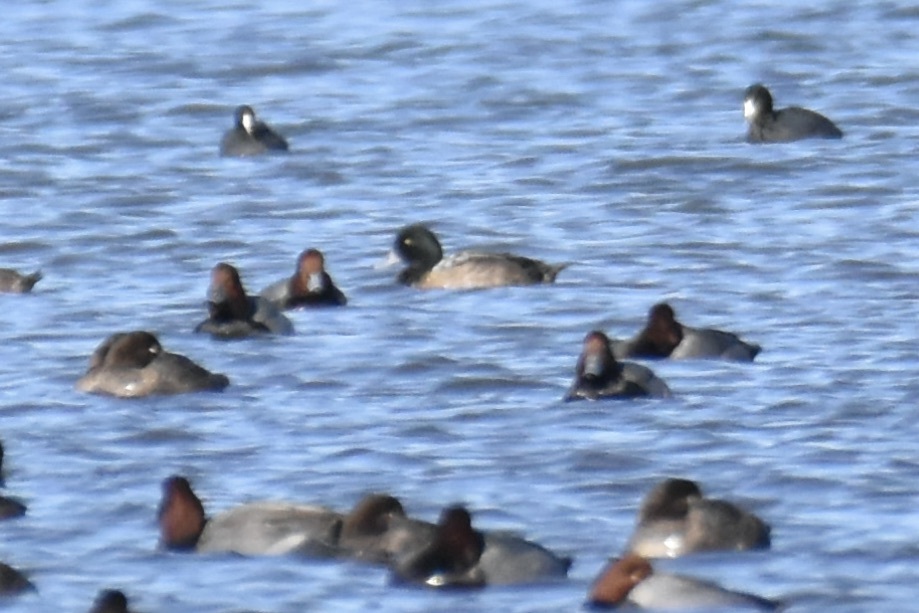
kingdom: Animalia
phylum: Chordata
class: Aves
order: Anseriformes
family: Anatidae
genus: Aythya
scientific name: Aythya marila
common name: Greater scaup
